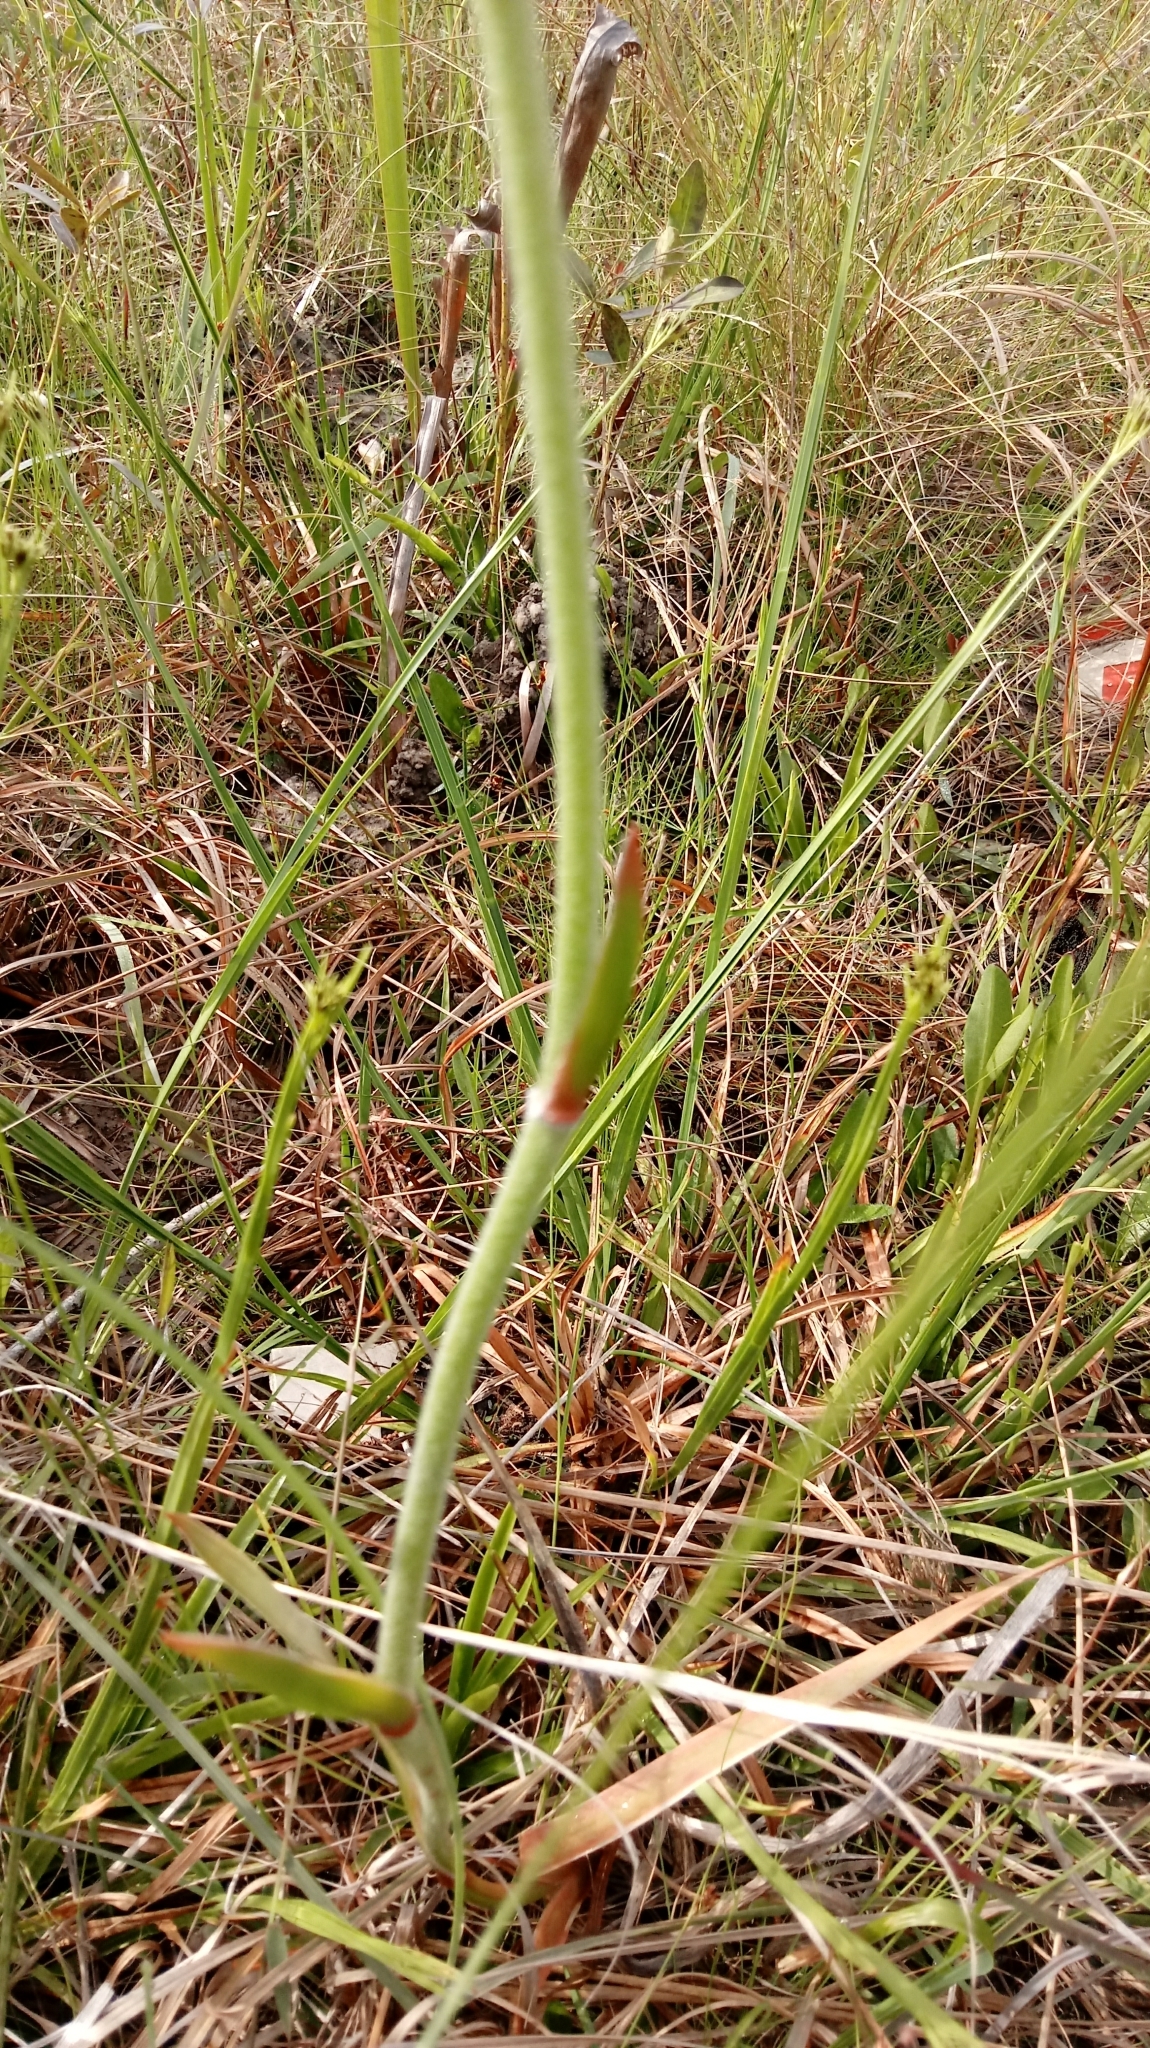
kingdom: Plantae
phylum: Tracheophyta
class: Liliopsida
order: Dioscoreales
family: Nartheciaceae
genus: Lophiola
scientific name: Lophiola aurea
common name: Golden-crest
